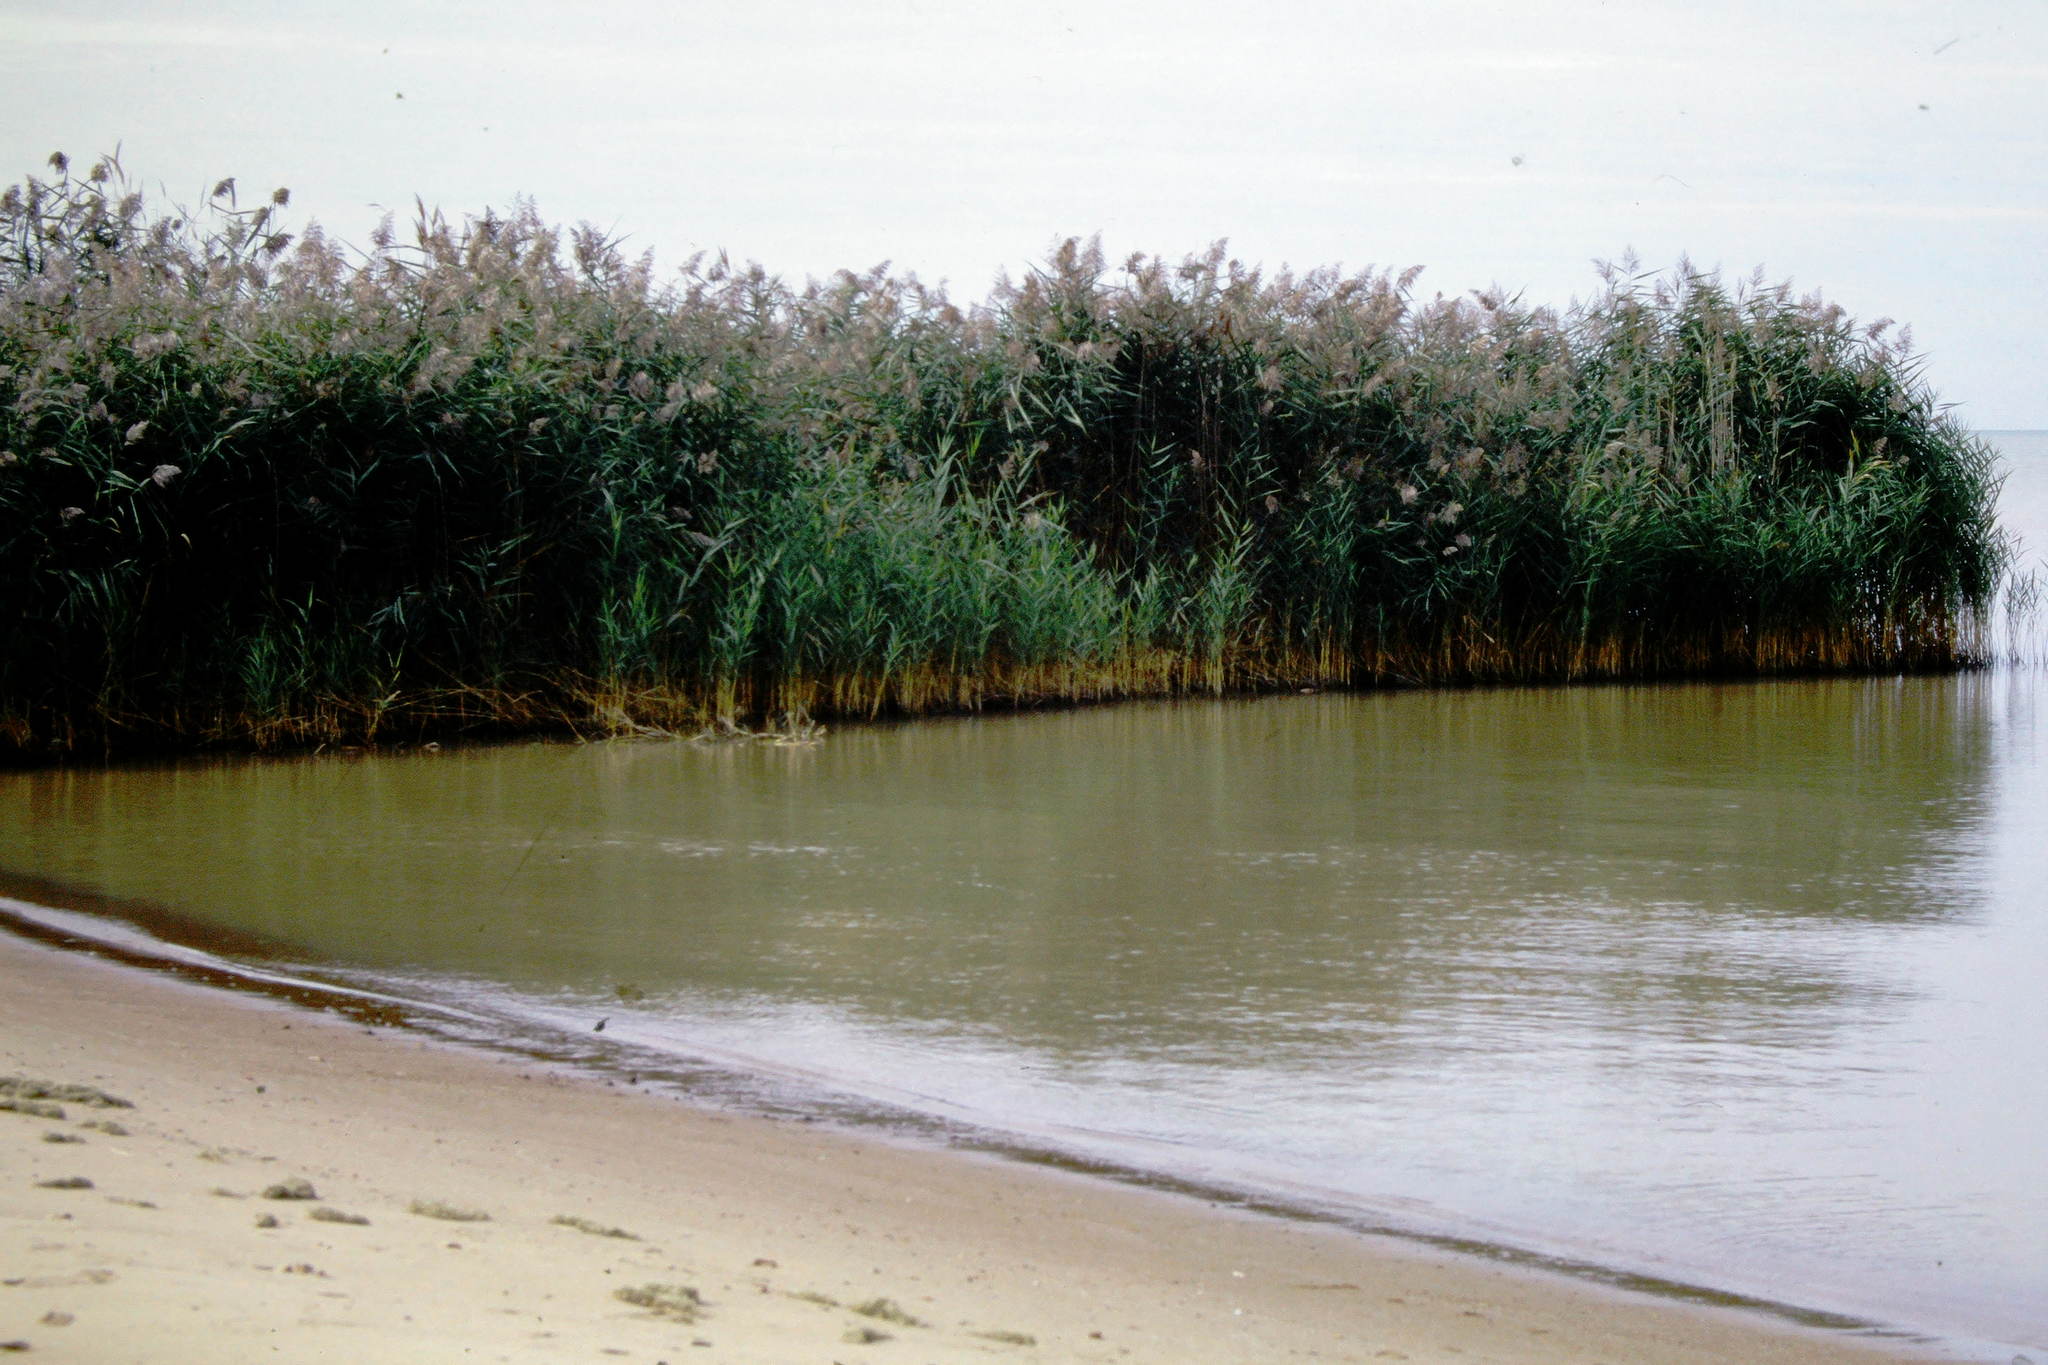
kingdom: Plantae
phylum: Tracheophyta
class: Liliopsida
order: Poales
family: Poaceae
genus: Phragmites
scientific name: Phragmites australis
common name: Common reed
